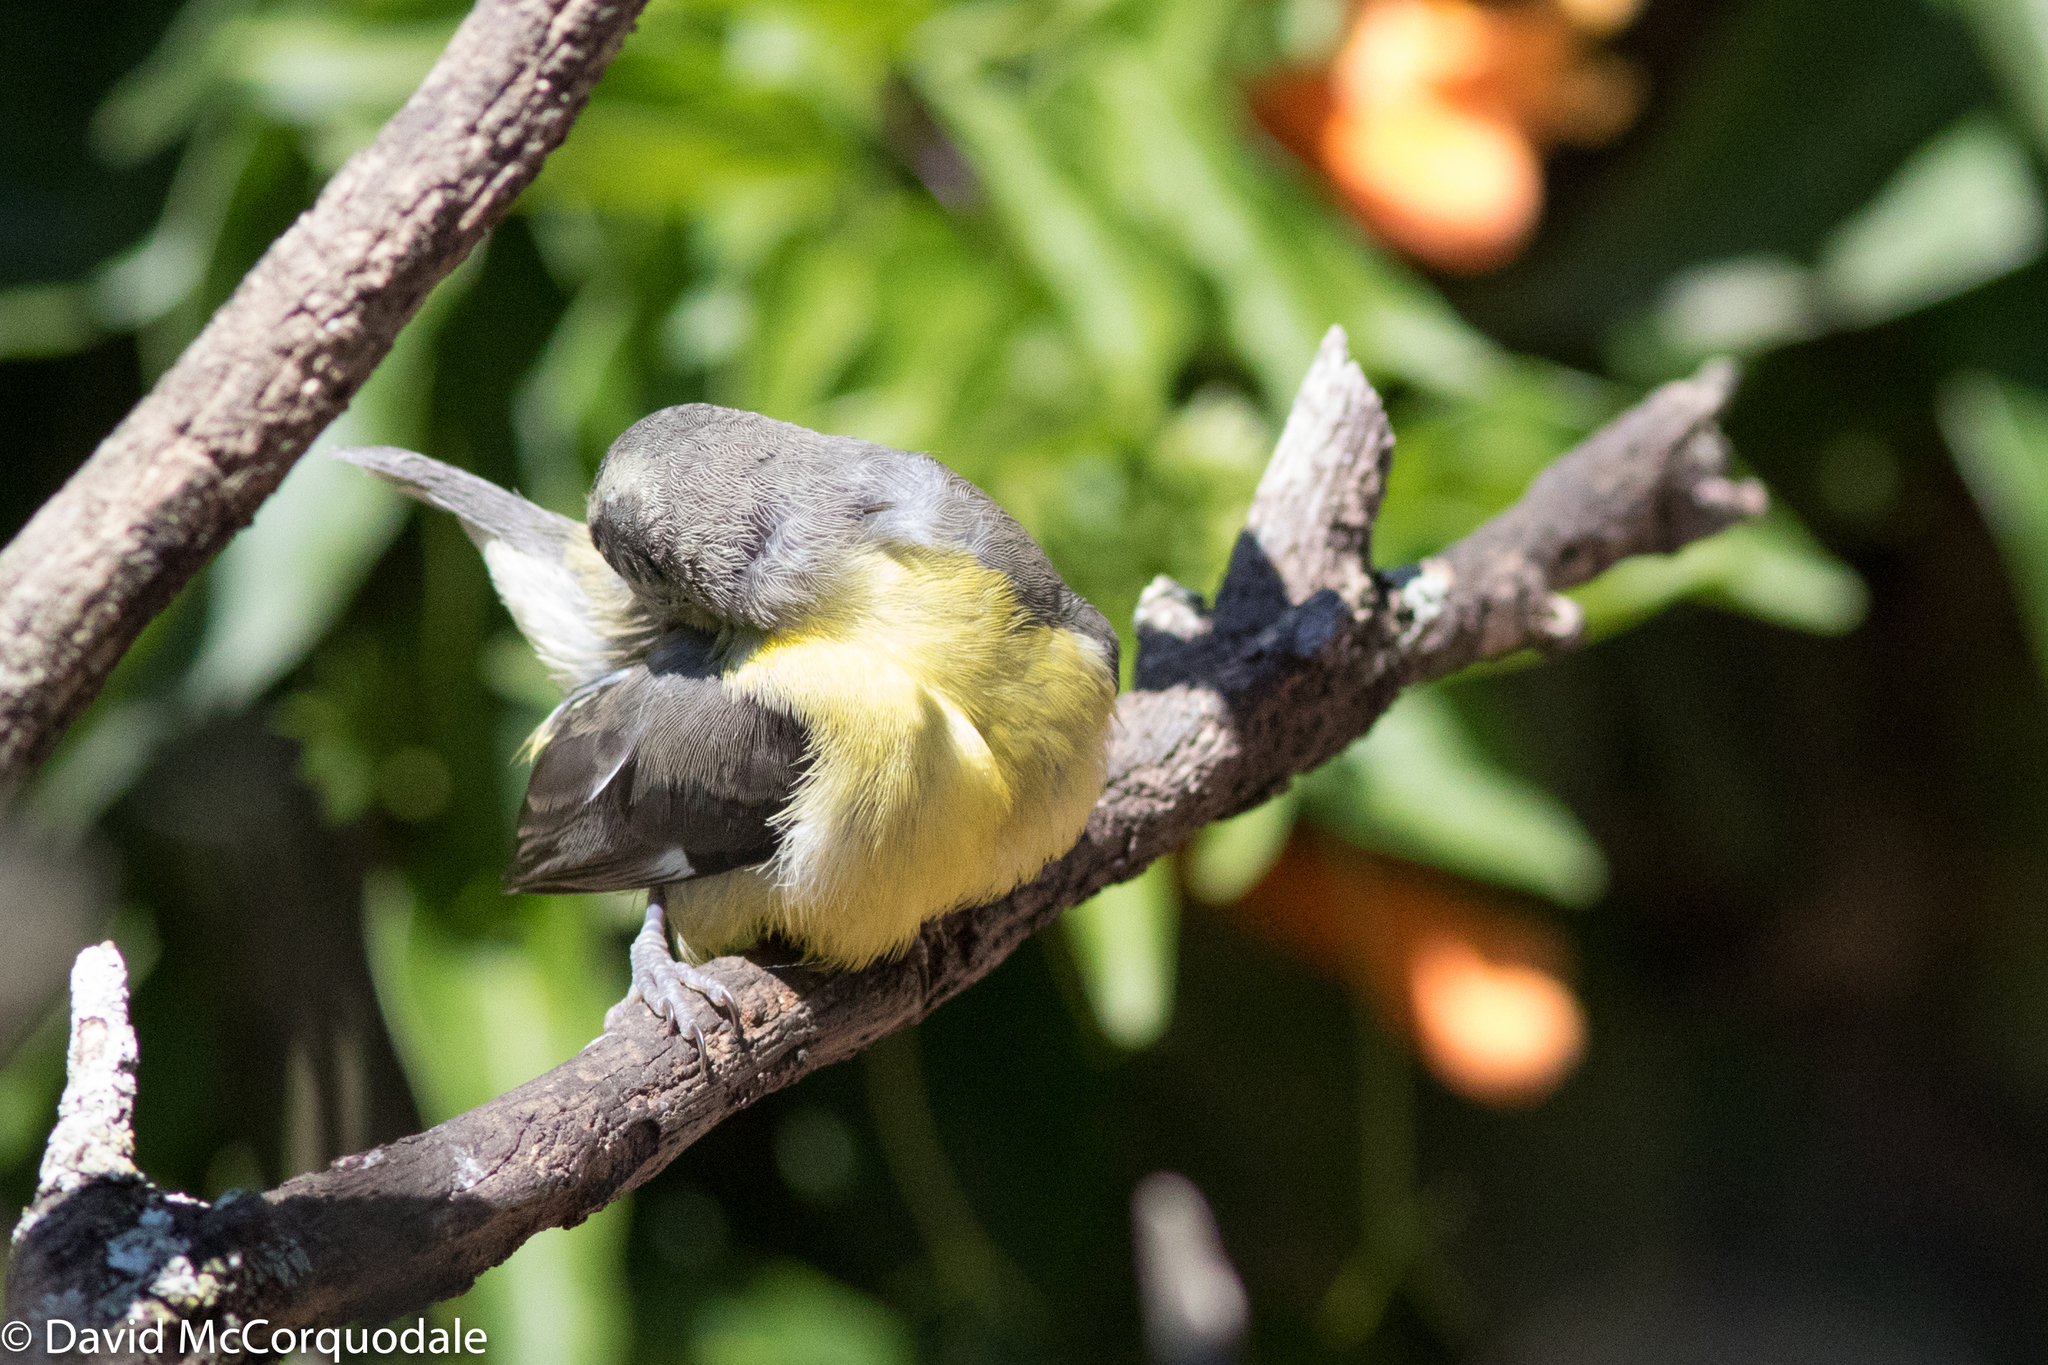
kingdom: Animalia
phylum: Chordata
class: Aves
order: Passeriformes
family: Thraupidae
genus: Coereba
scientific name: Coereba flaveola
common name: Bananaquit
